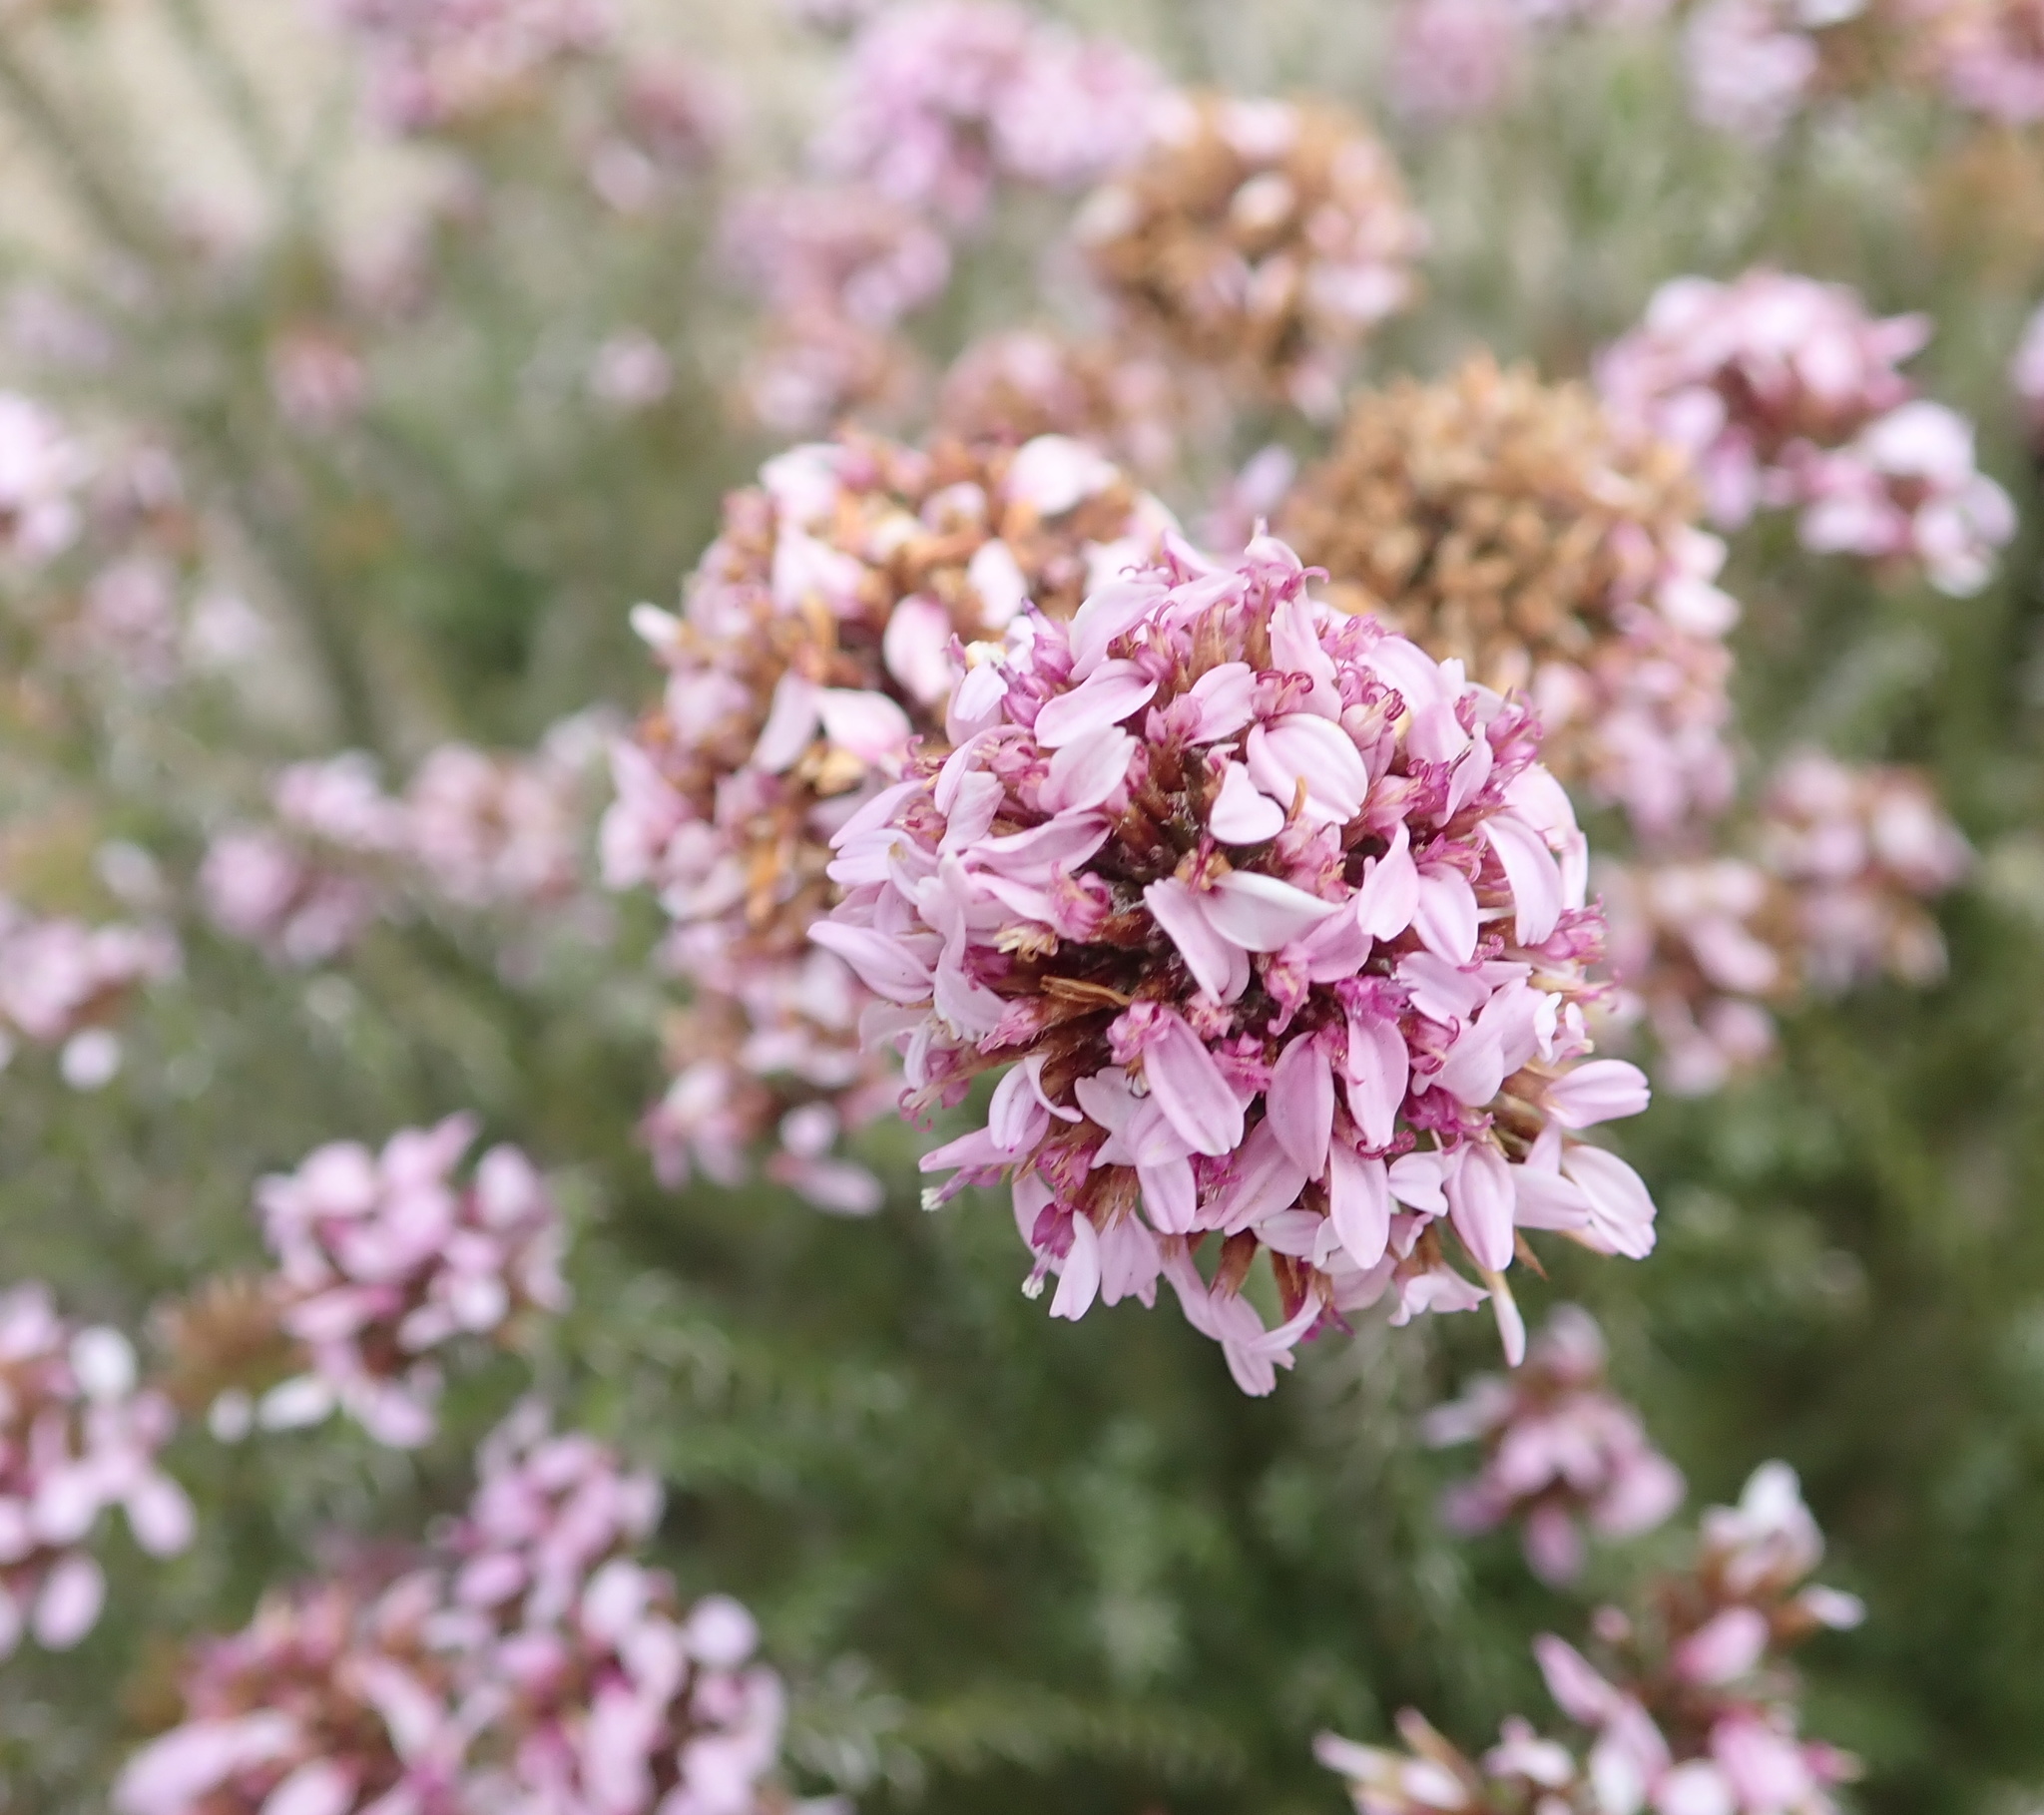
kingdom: Plantae
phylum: Tracheophyta
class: Magnoliopsida
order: Asterales
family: Asteraceae
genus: Disparago
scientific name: Disparago ericoides
